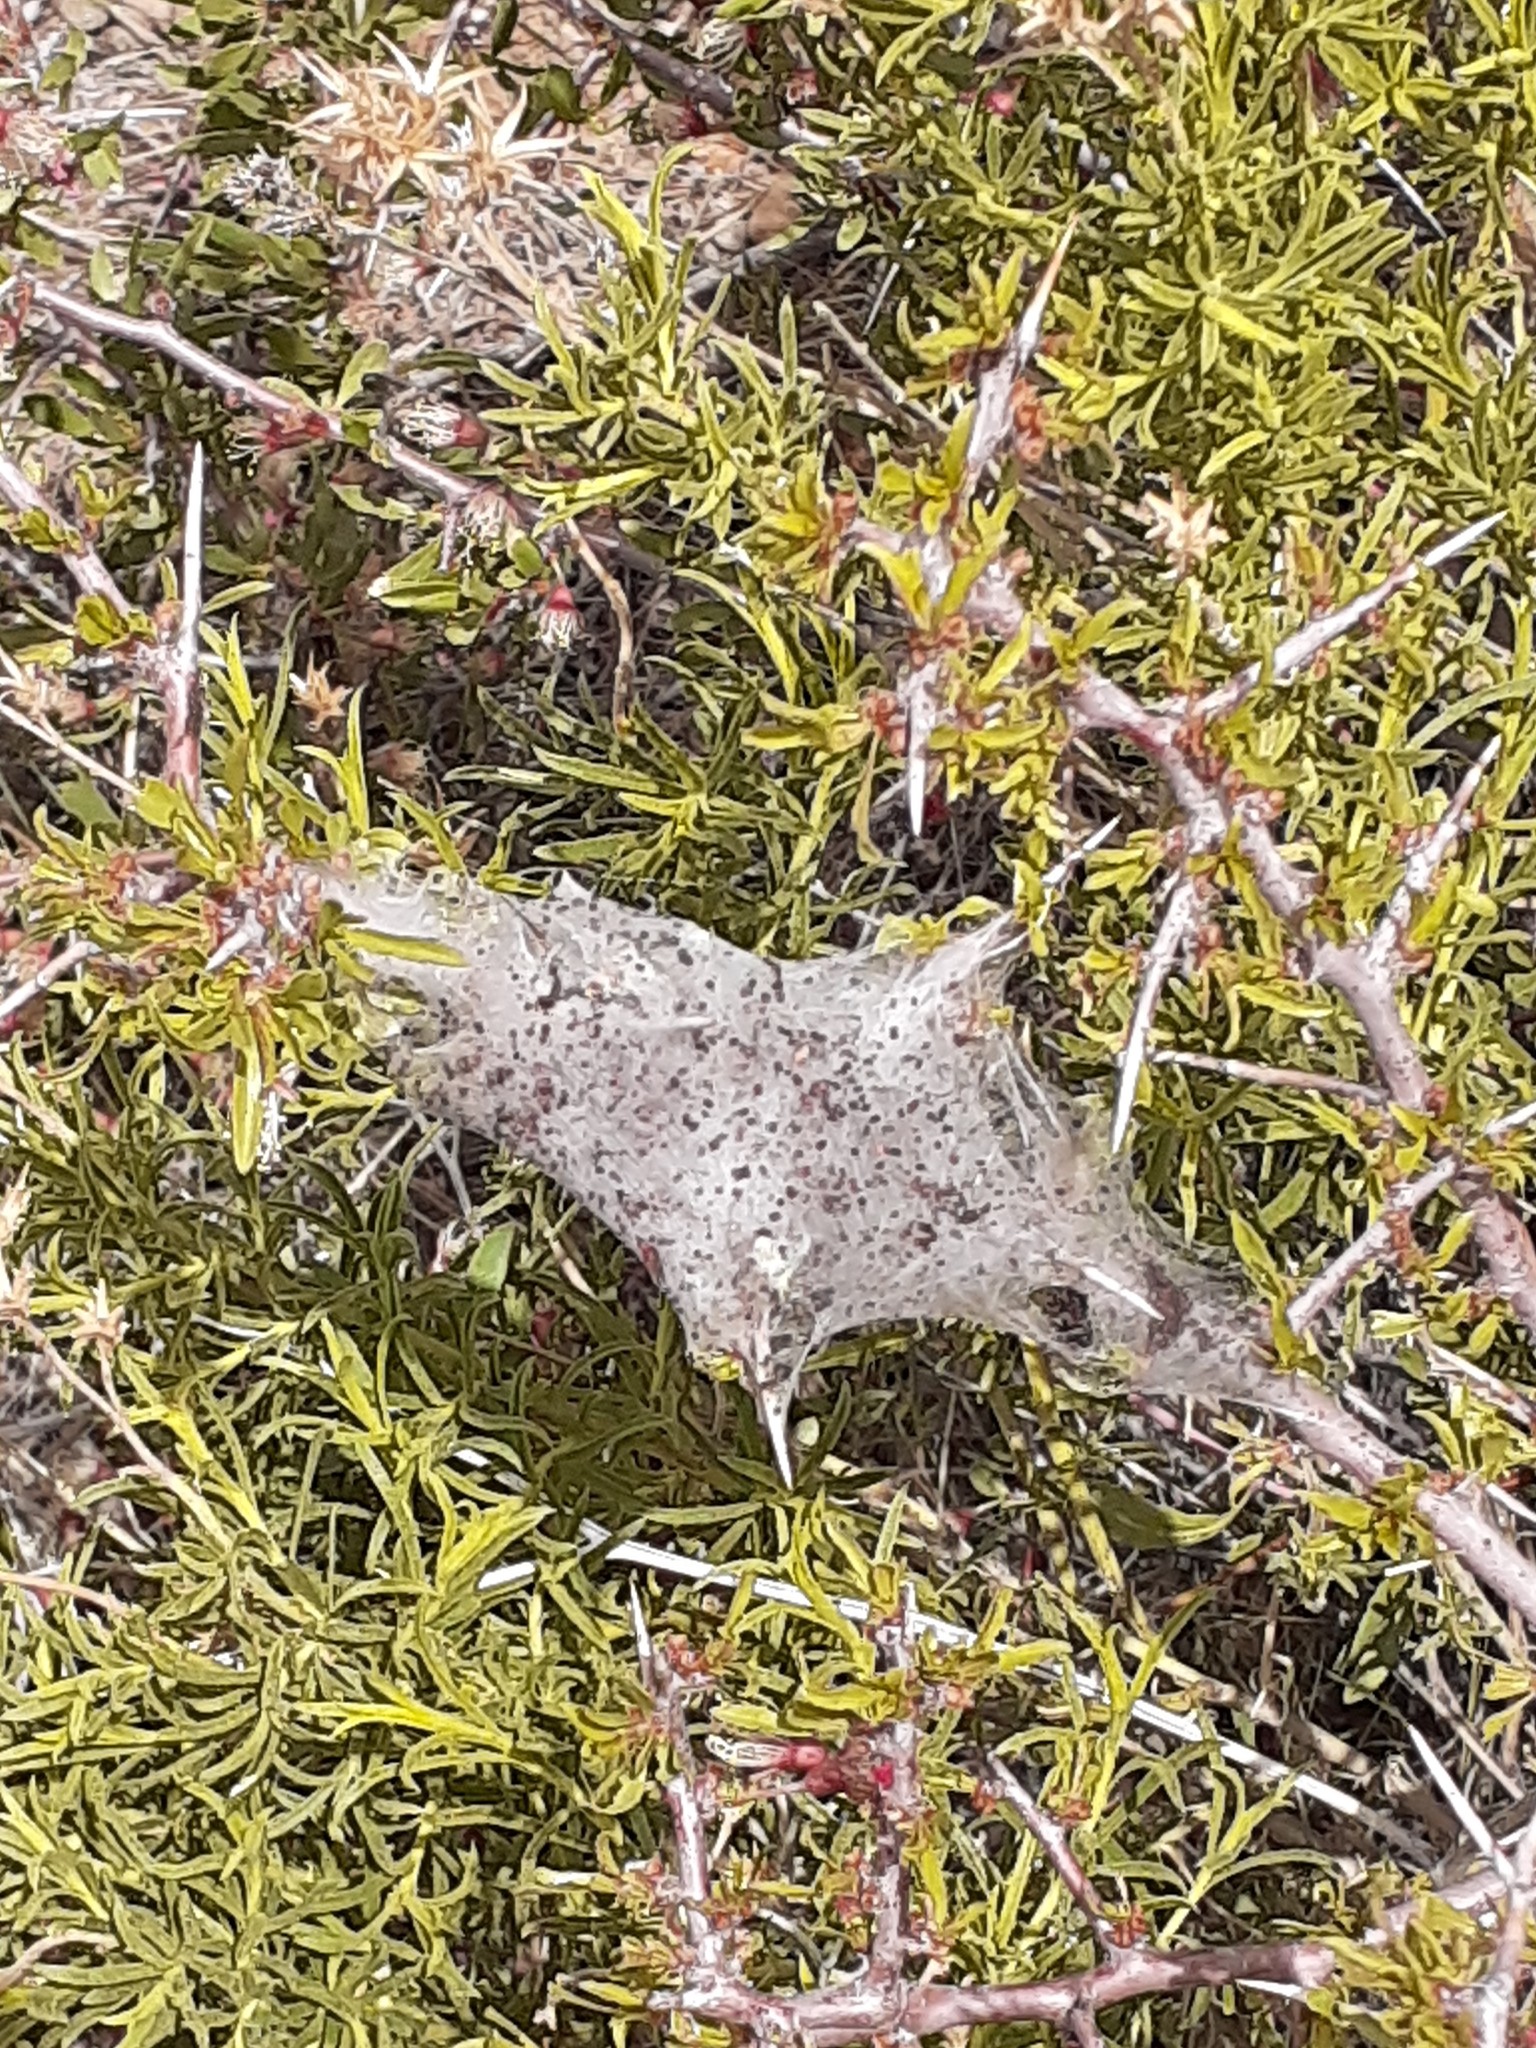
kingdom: Animalia
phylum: Arthropoda
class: Insecta
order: Lepidoptera
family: Lasiocampidae
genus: Malacosoma
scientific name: Malacosoma californica
